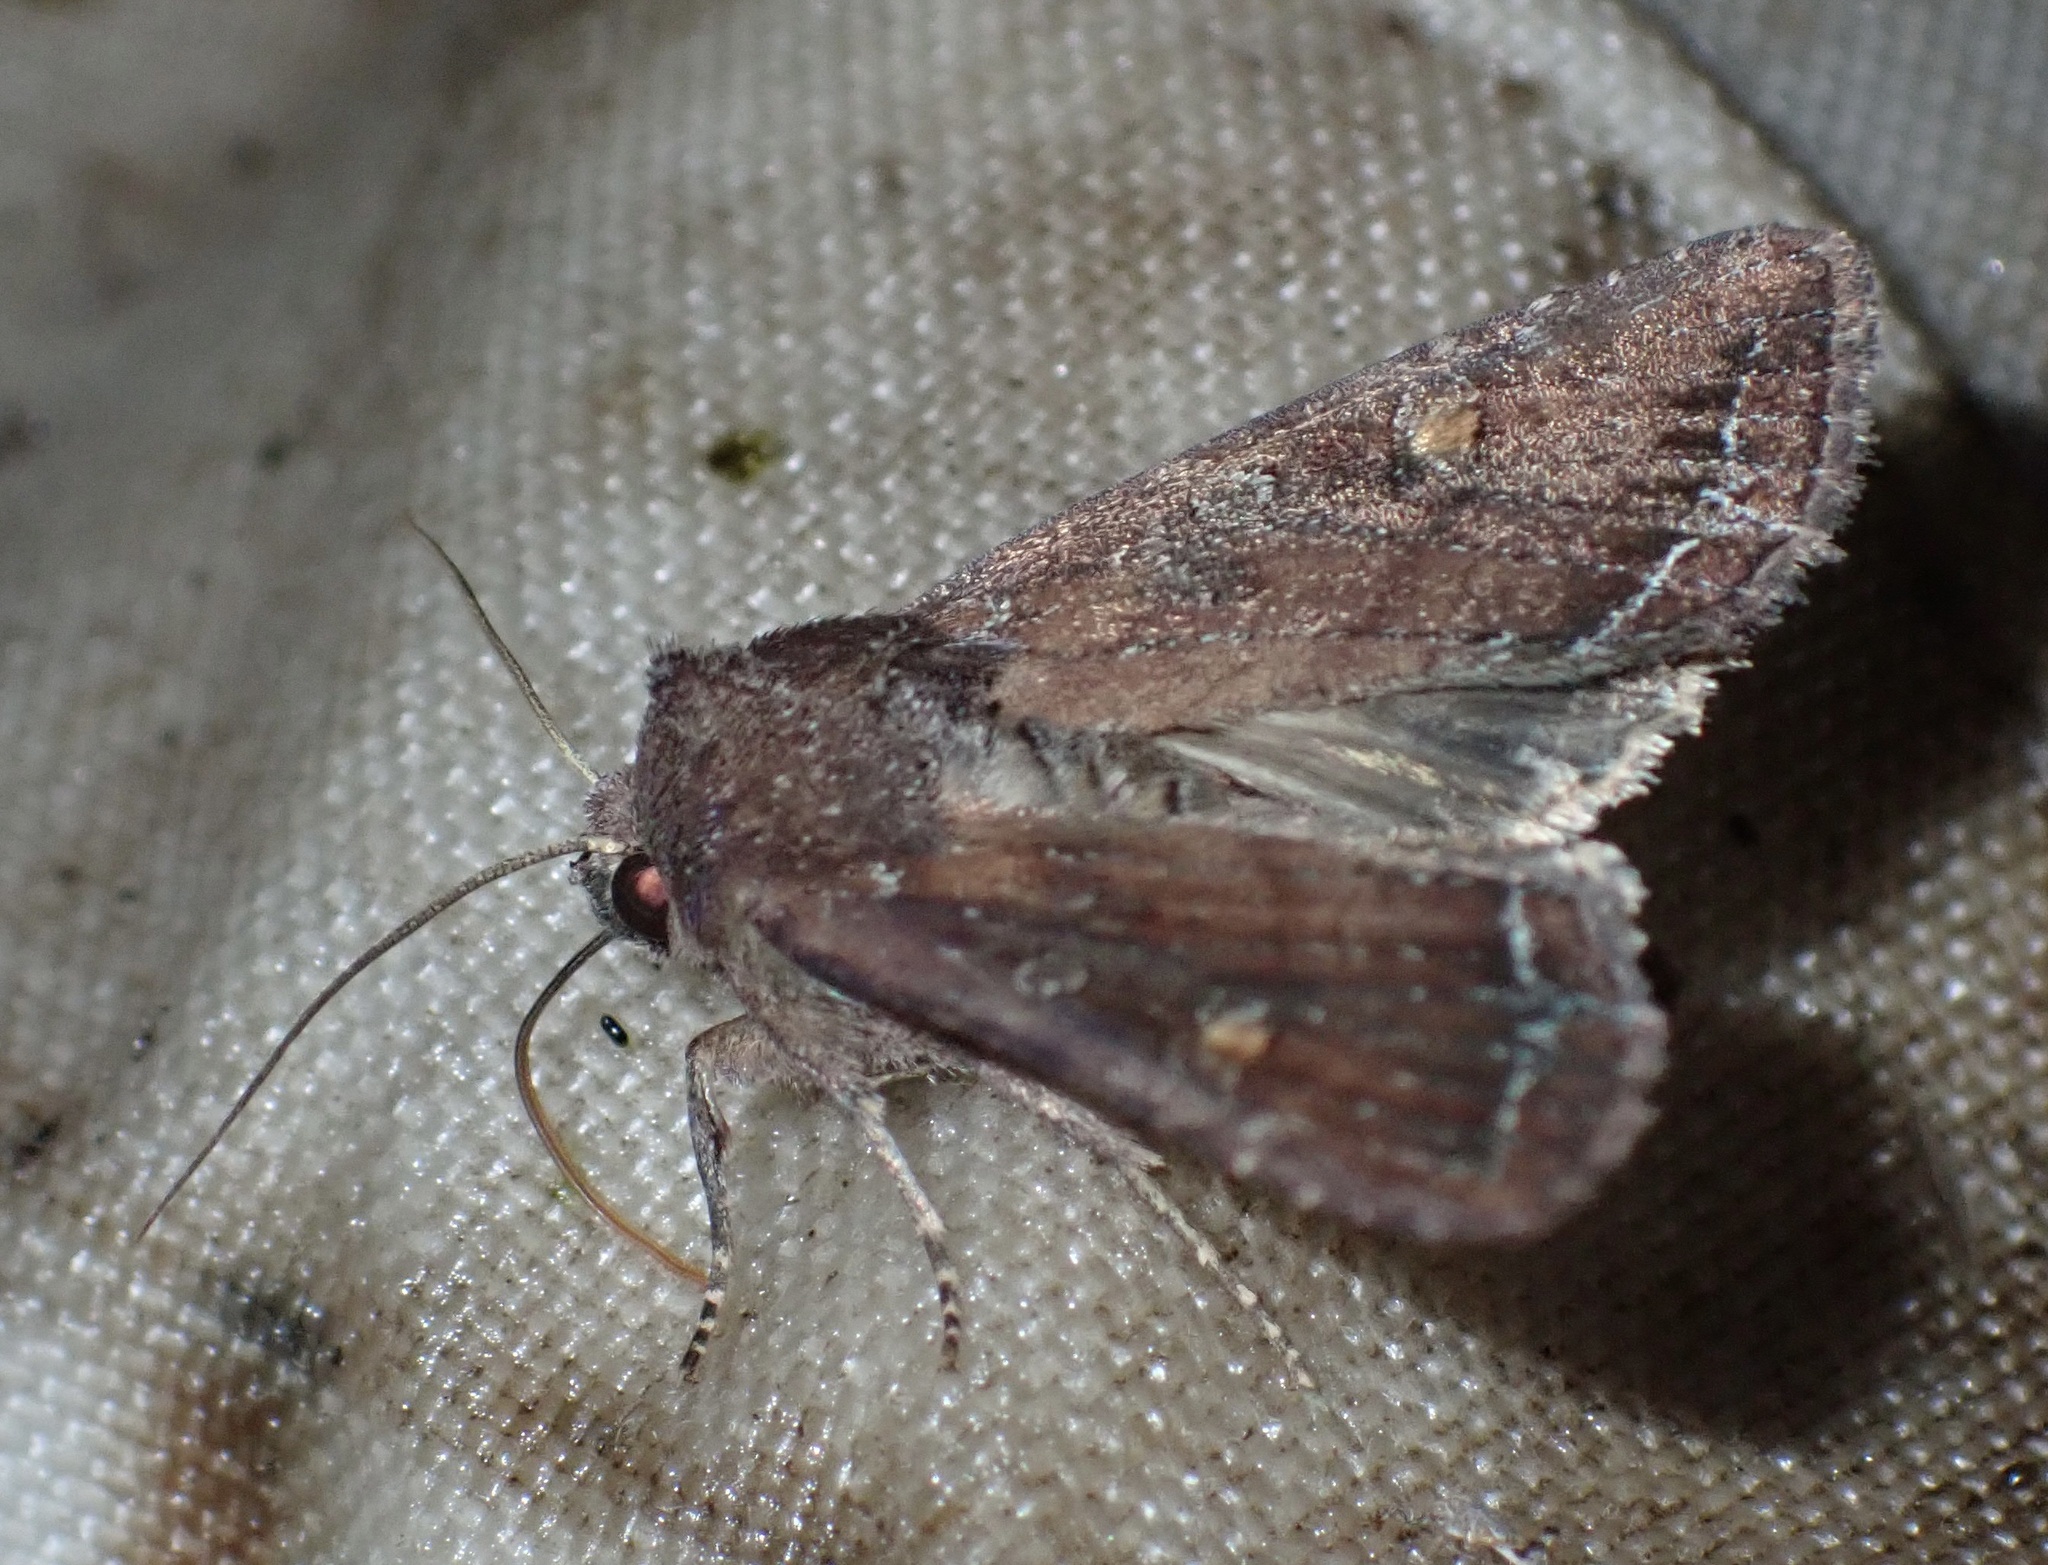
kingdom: Animalia
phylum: Arthropoda
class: Insecta
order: Lepidoptera
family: Noctuidae
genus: Lacanobia
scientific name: Lacanobia oleracea
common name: Bright-line brown-eye
